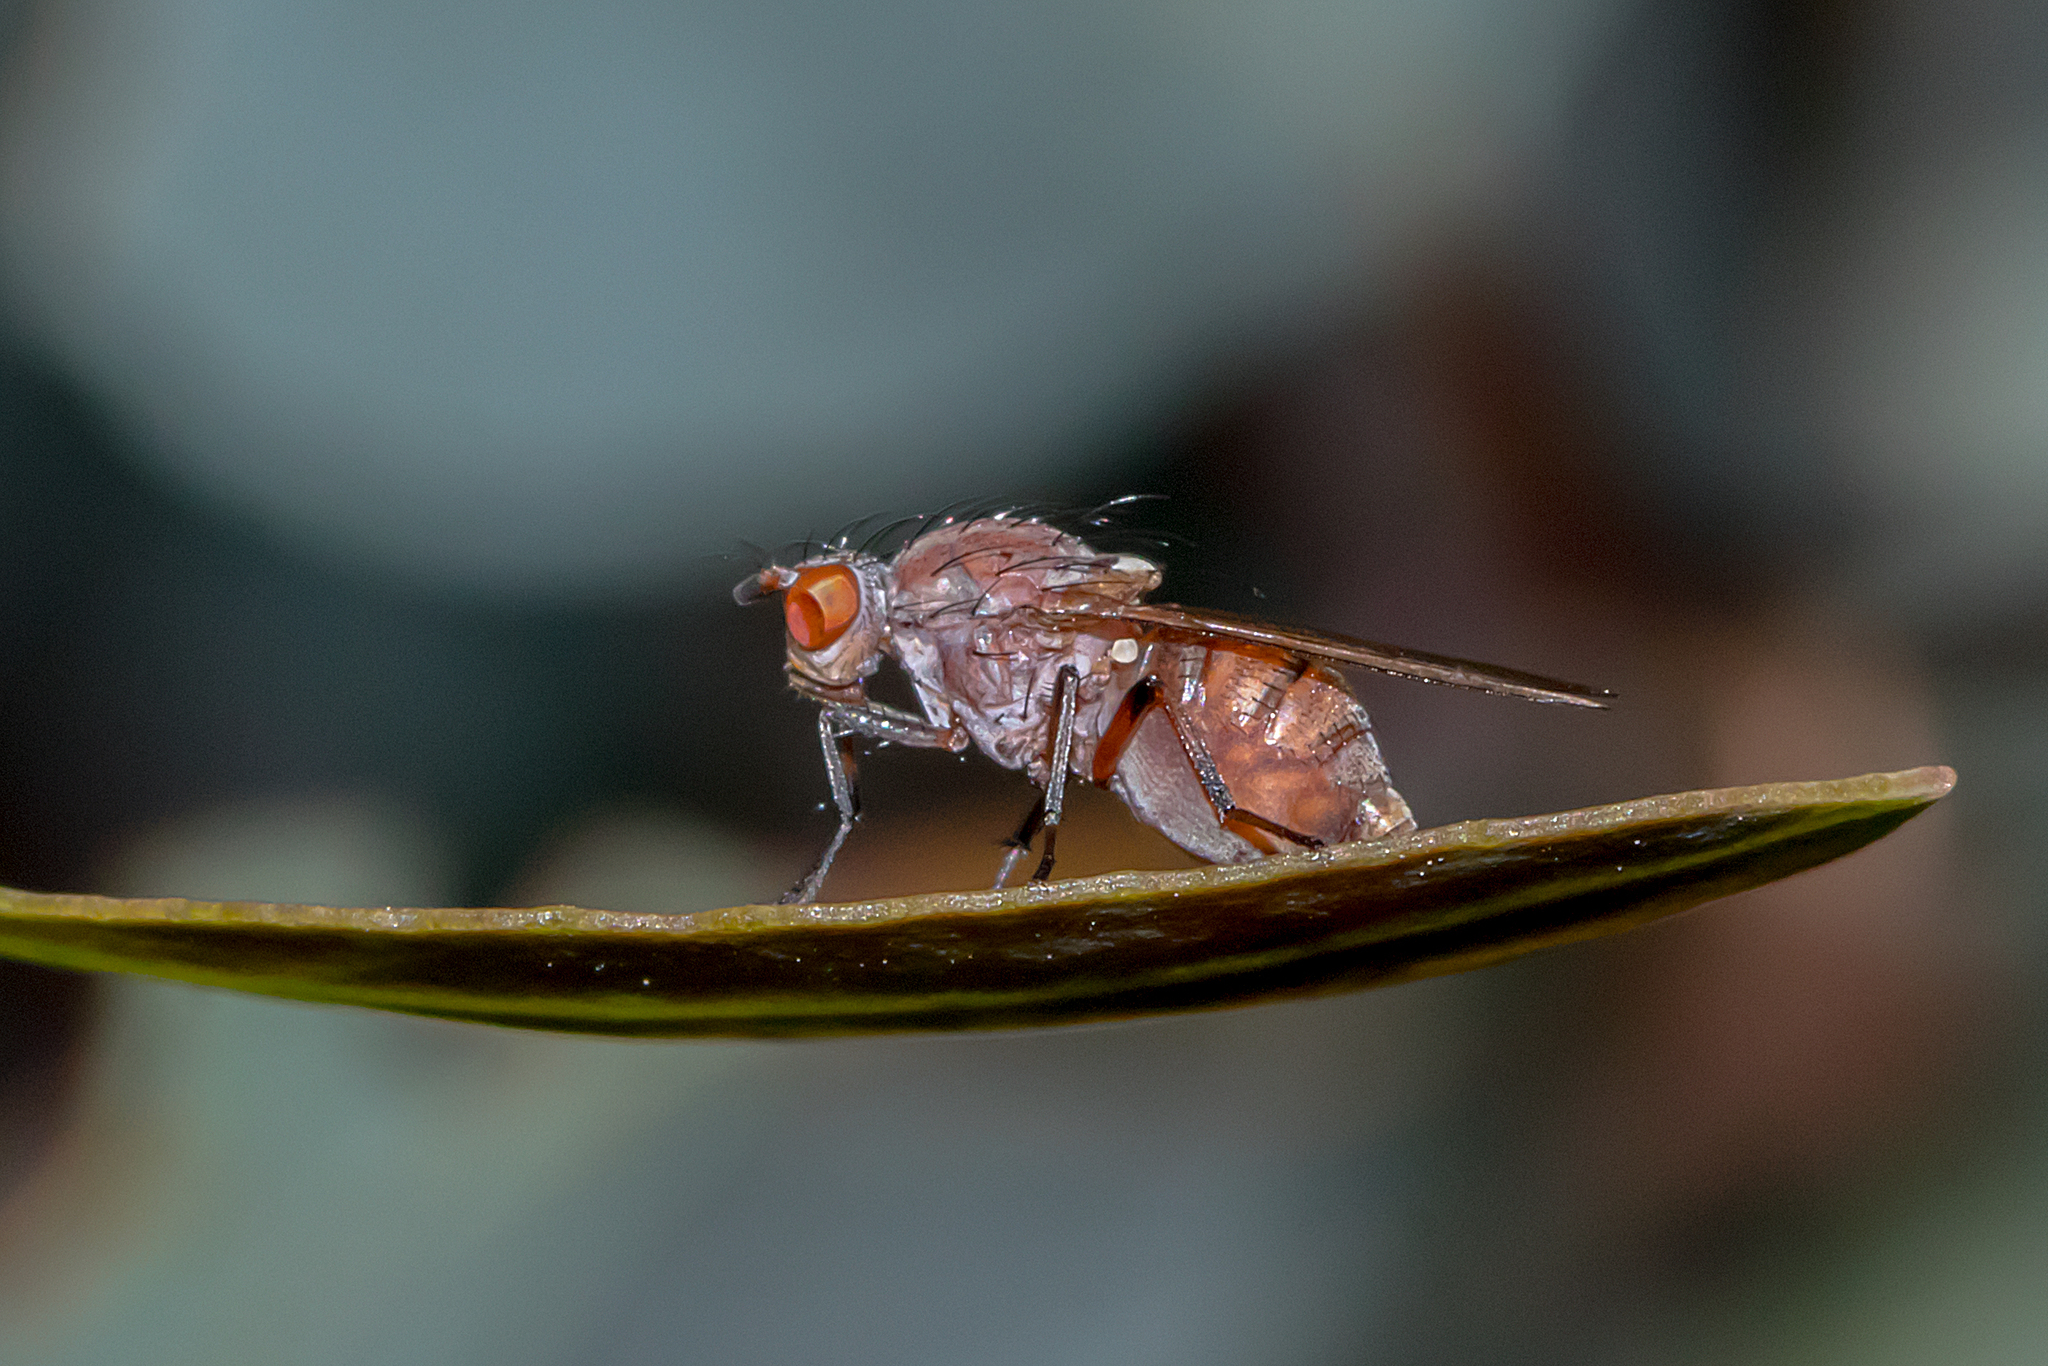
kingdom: Animalia
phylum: Arthropoda
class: Insecta
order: Diptera
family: Lauxaniidae
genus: Meiosimyza
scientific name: Meiosimyza
